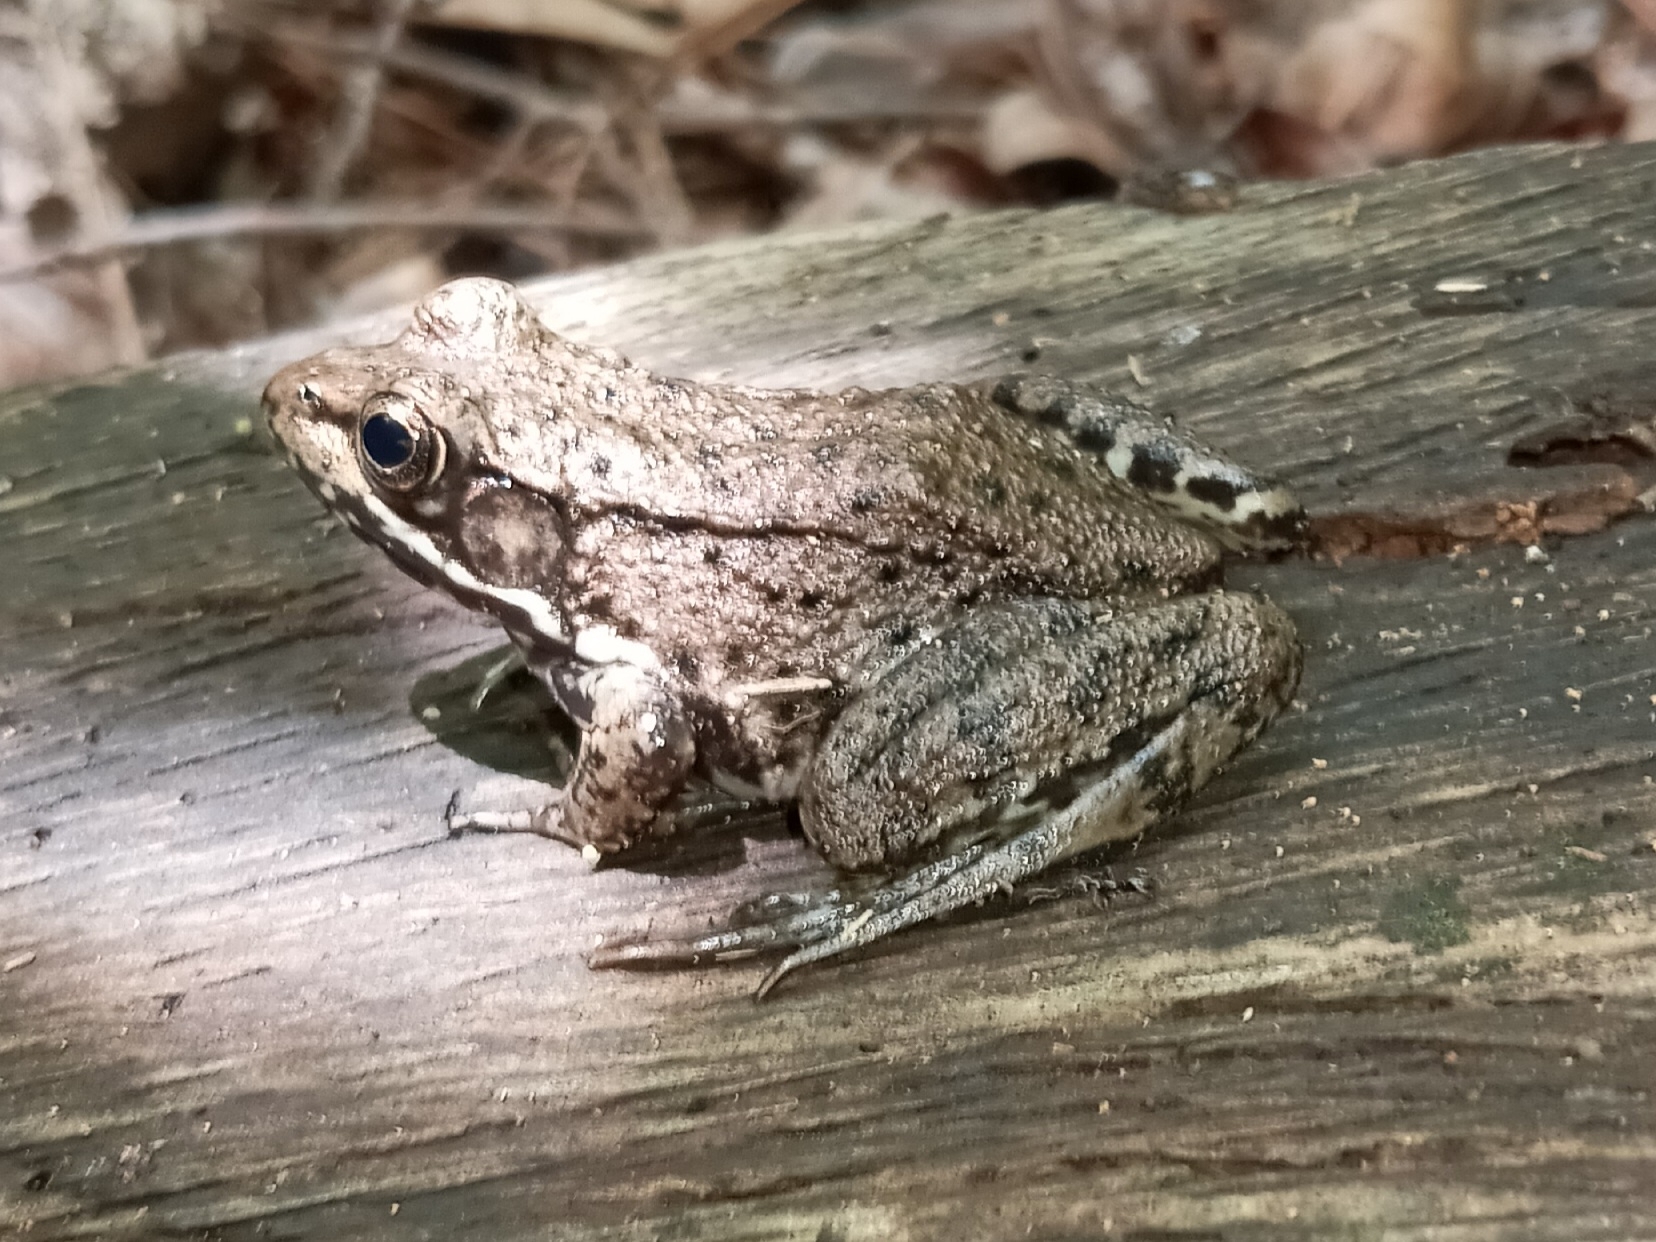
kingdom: Animalia
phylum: Chordata
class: Amphibia
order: Anura
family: Ranidae
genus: Lithobates
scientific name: Lithobates clamitans
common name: Green frog
